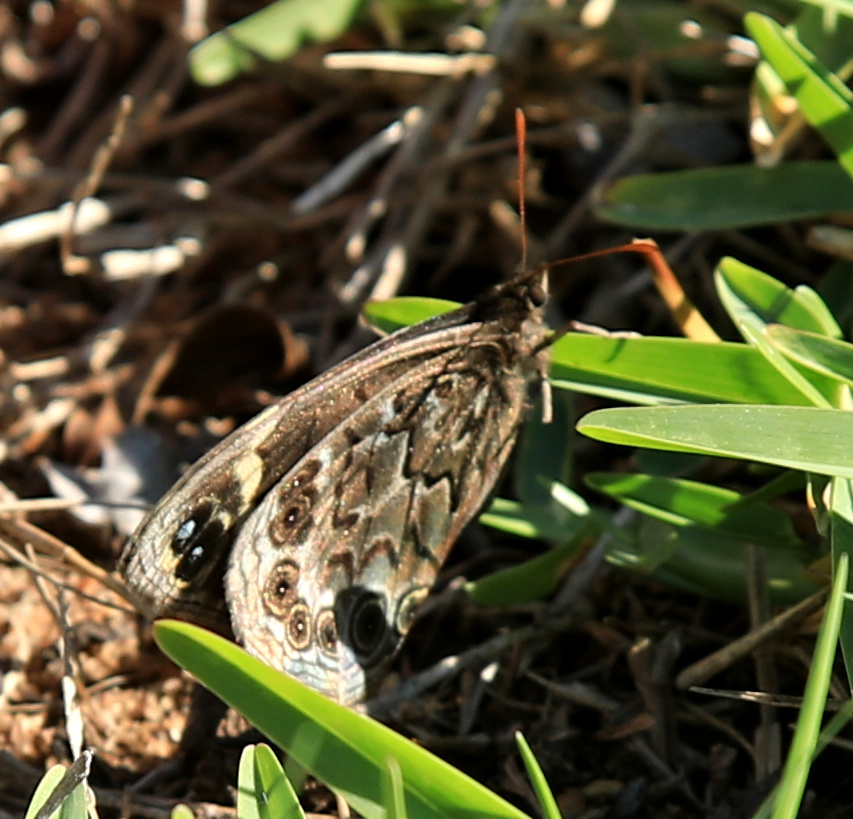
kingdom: Animalia
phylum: Arthropoda
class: Insecta
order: Lepidoptera
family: Nymphalidae
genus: Dira
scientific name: Dira clytus
